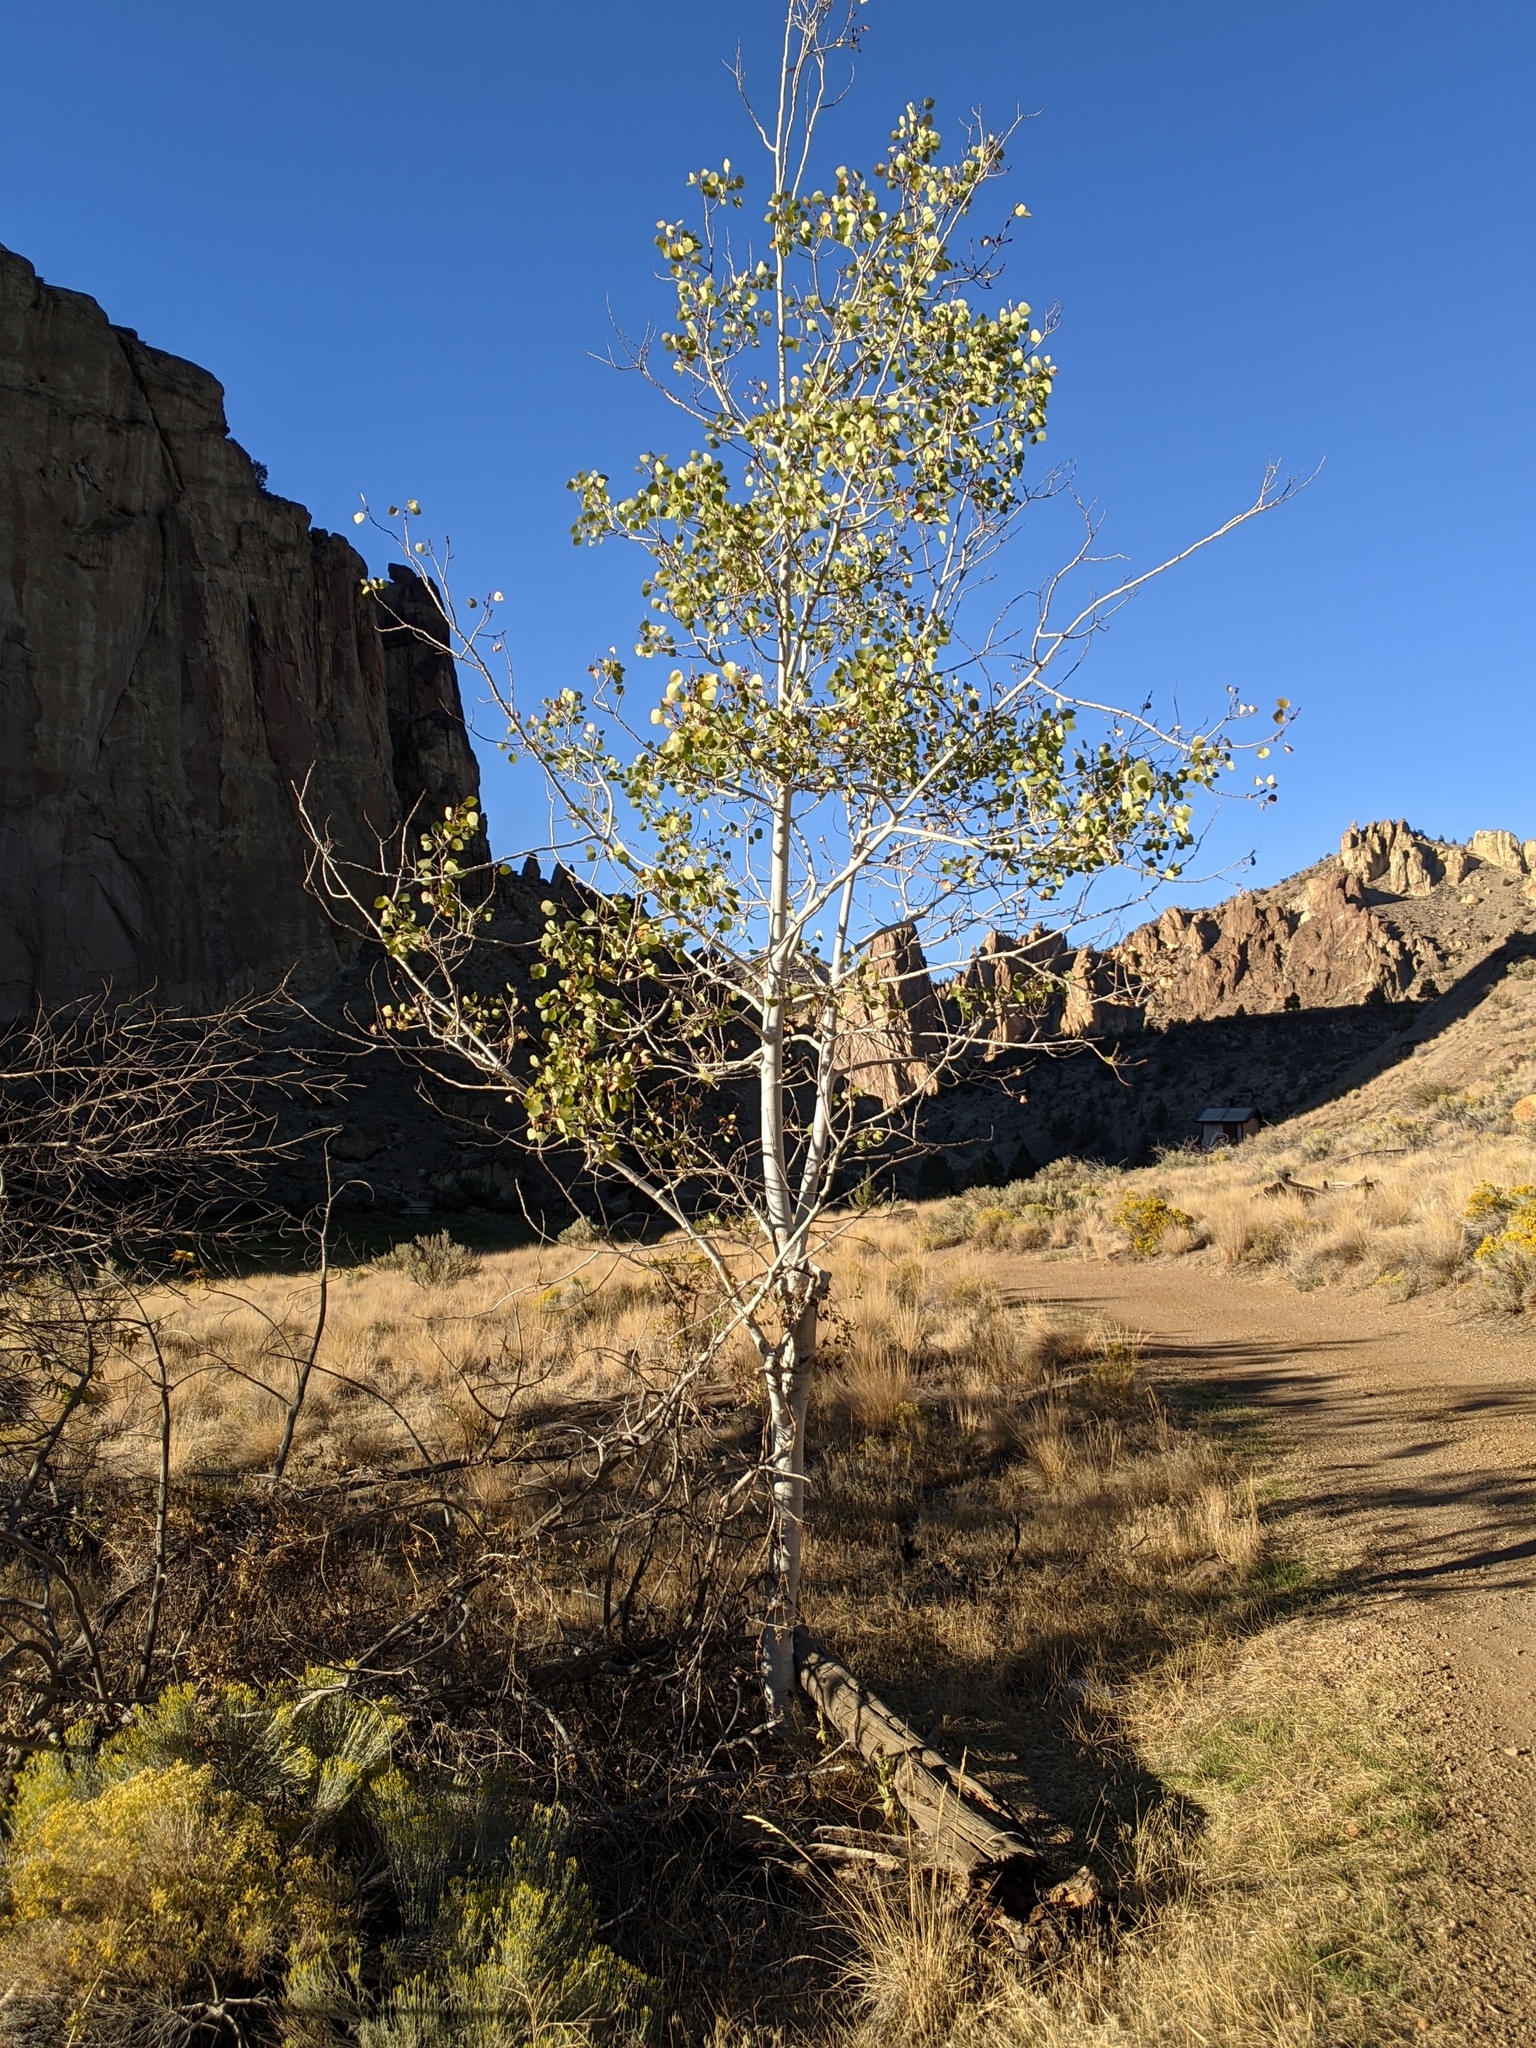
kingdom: Plantae
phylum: Tracheophyta
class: Magnoliopsida
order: Malpighiales
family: Salicaceae
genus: Populus
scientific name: Populus tremuloides
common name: Quaking aspen
